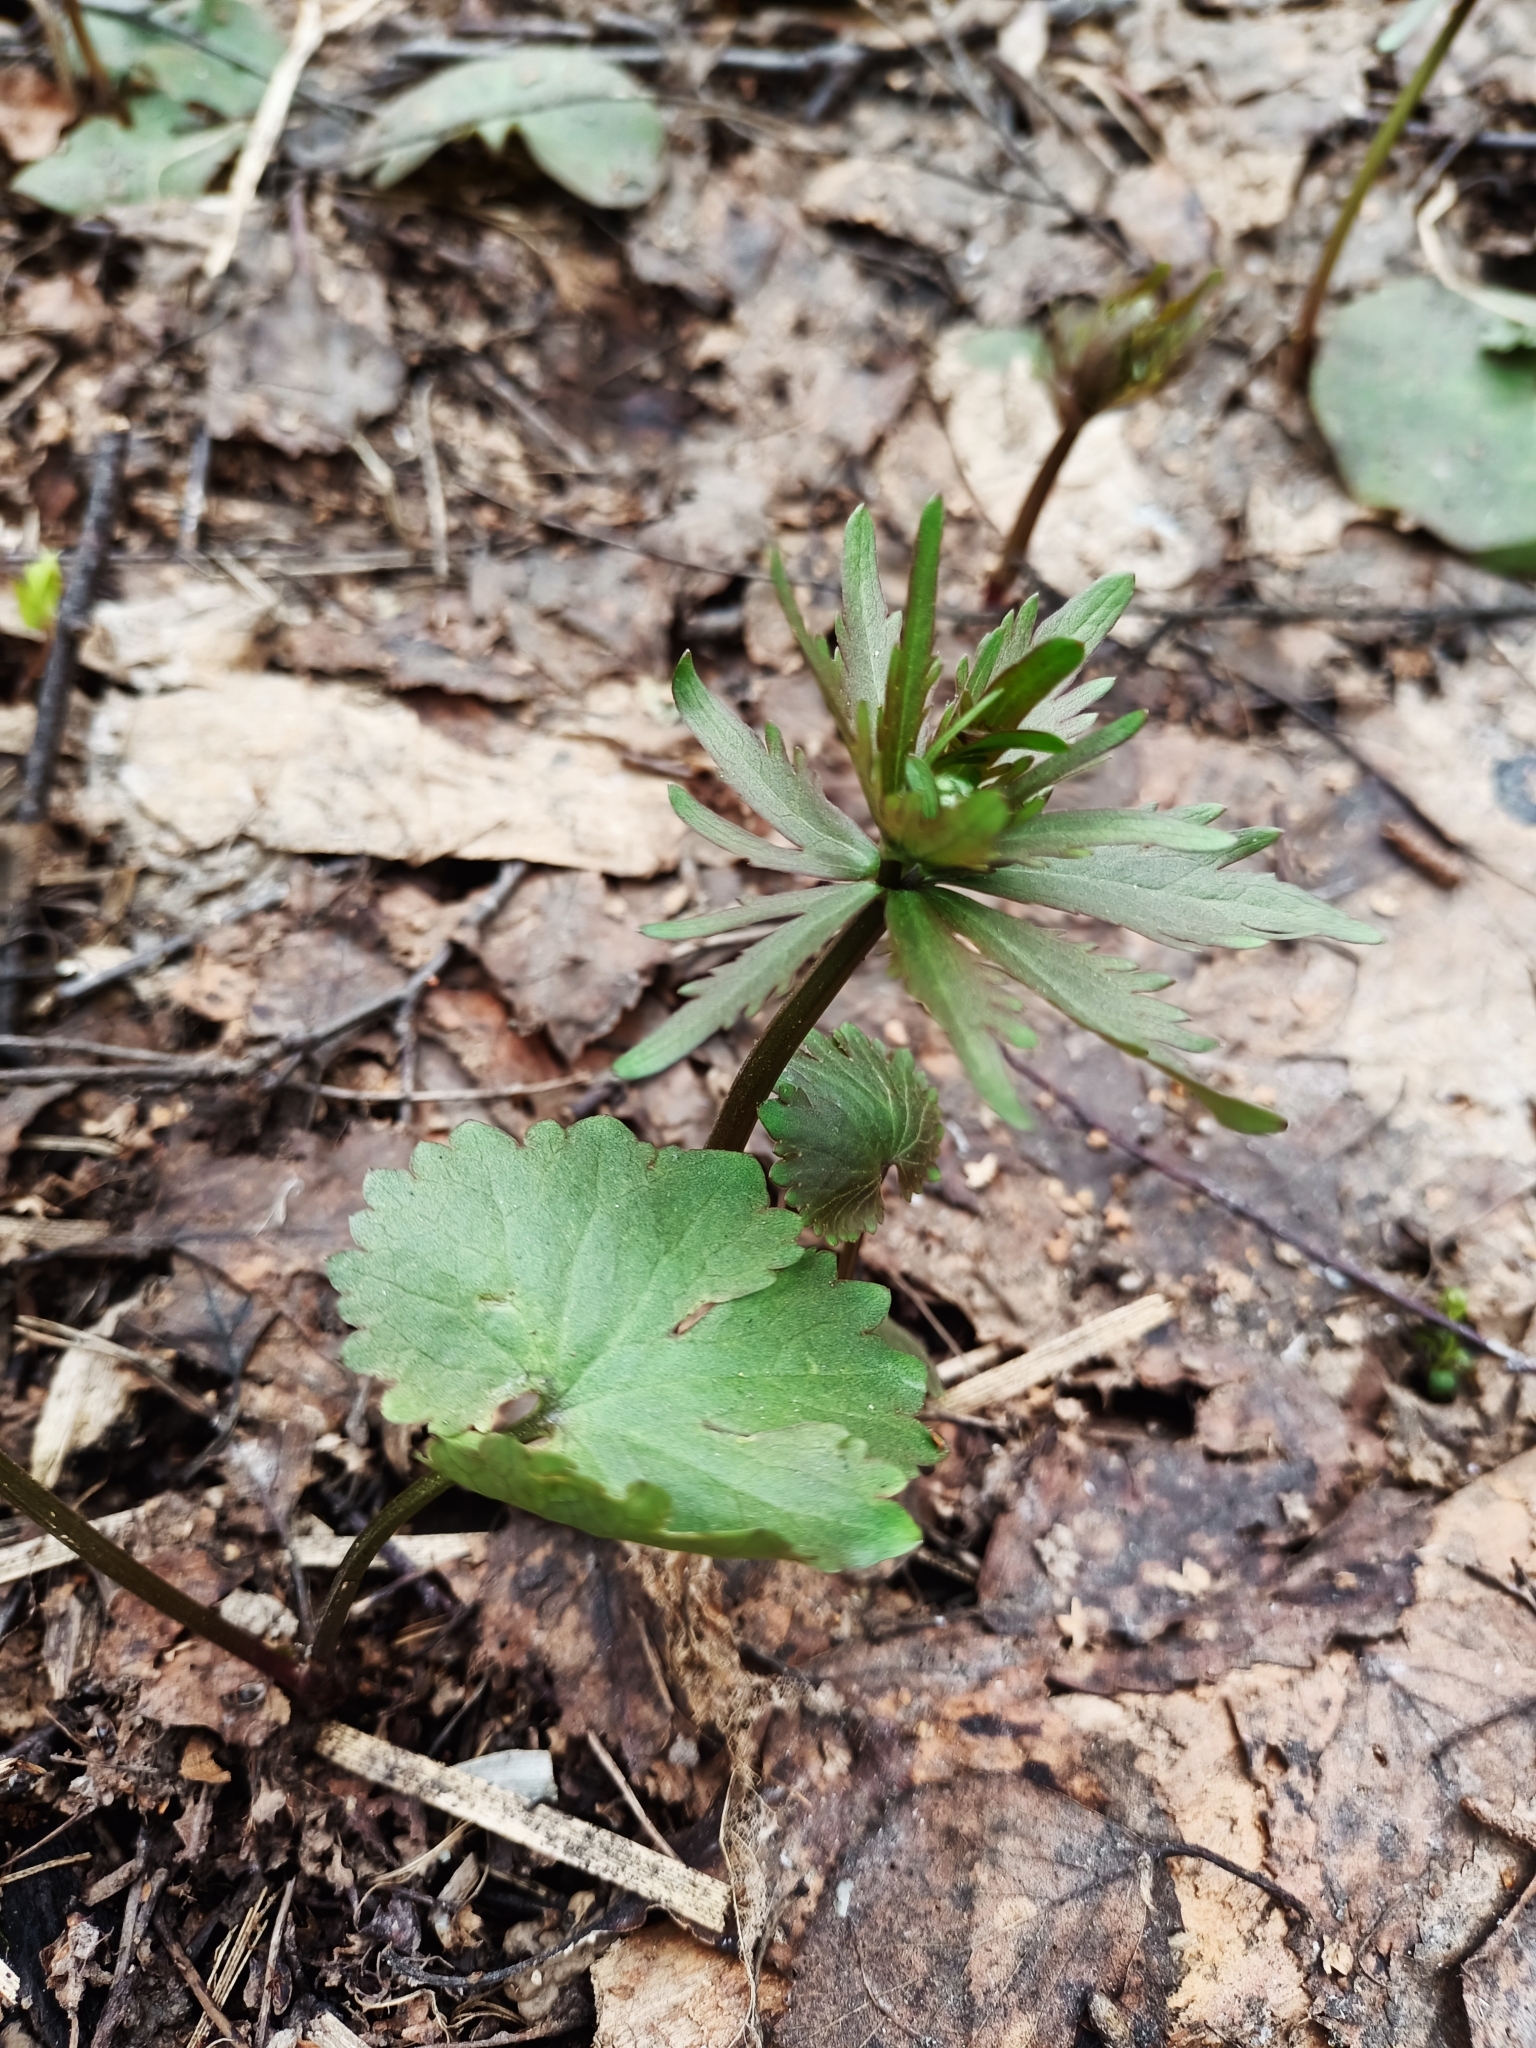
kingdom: Plantae
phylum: Tracheophyta
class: Magnoliopsida
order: Ranunculales
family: Ranunculaceae
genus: Ranunculus
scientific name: Ranunculus cassubicus
